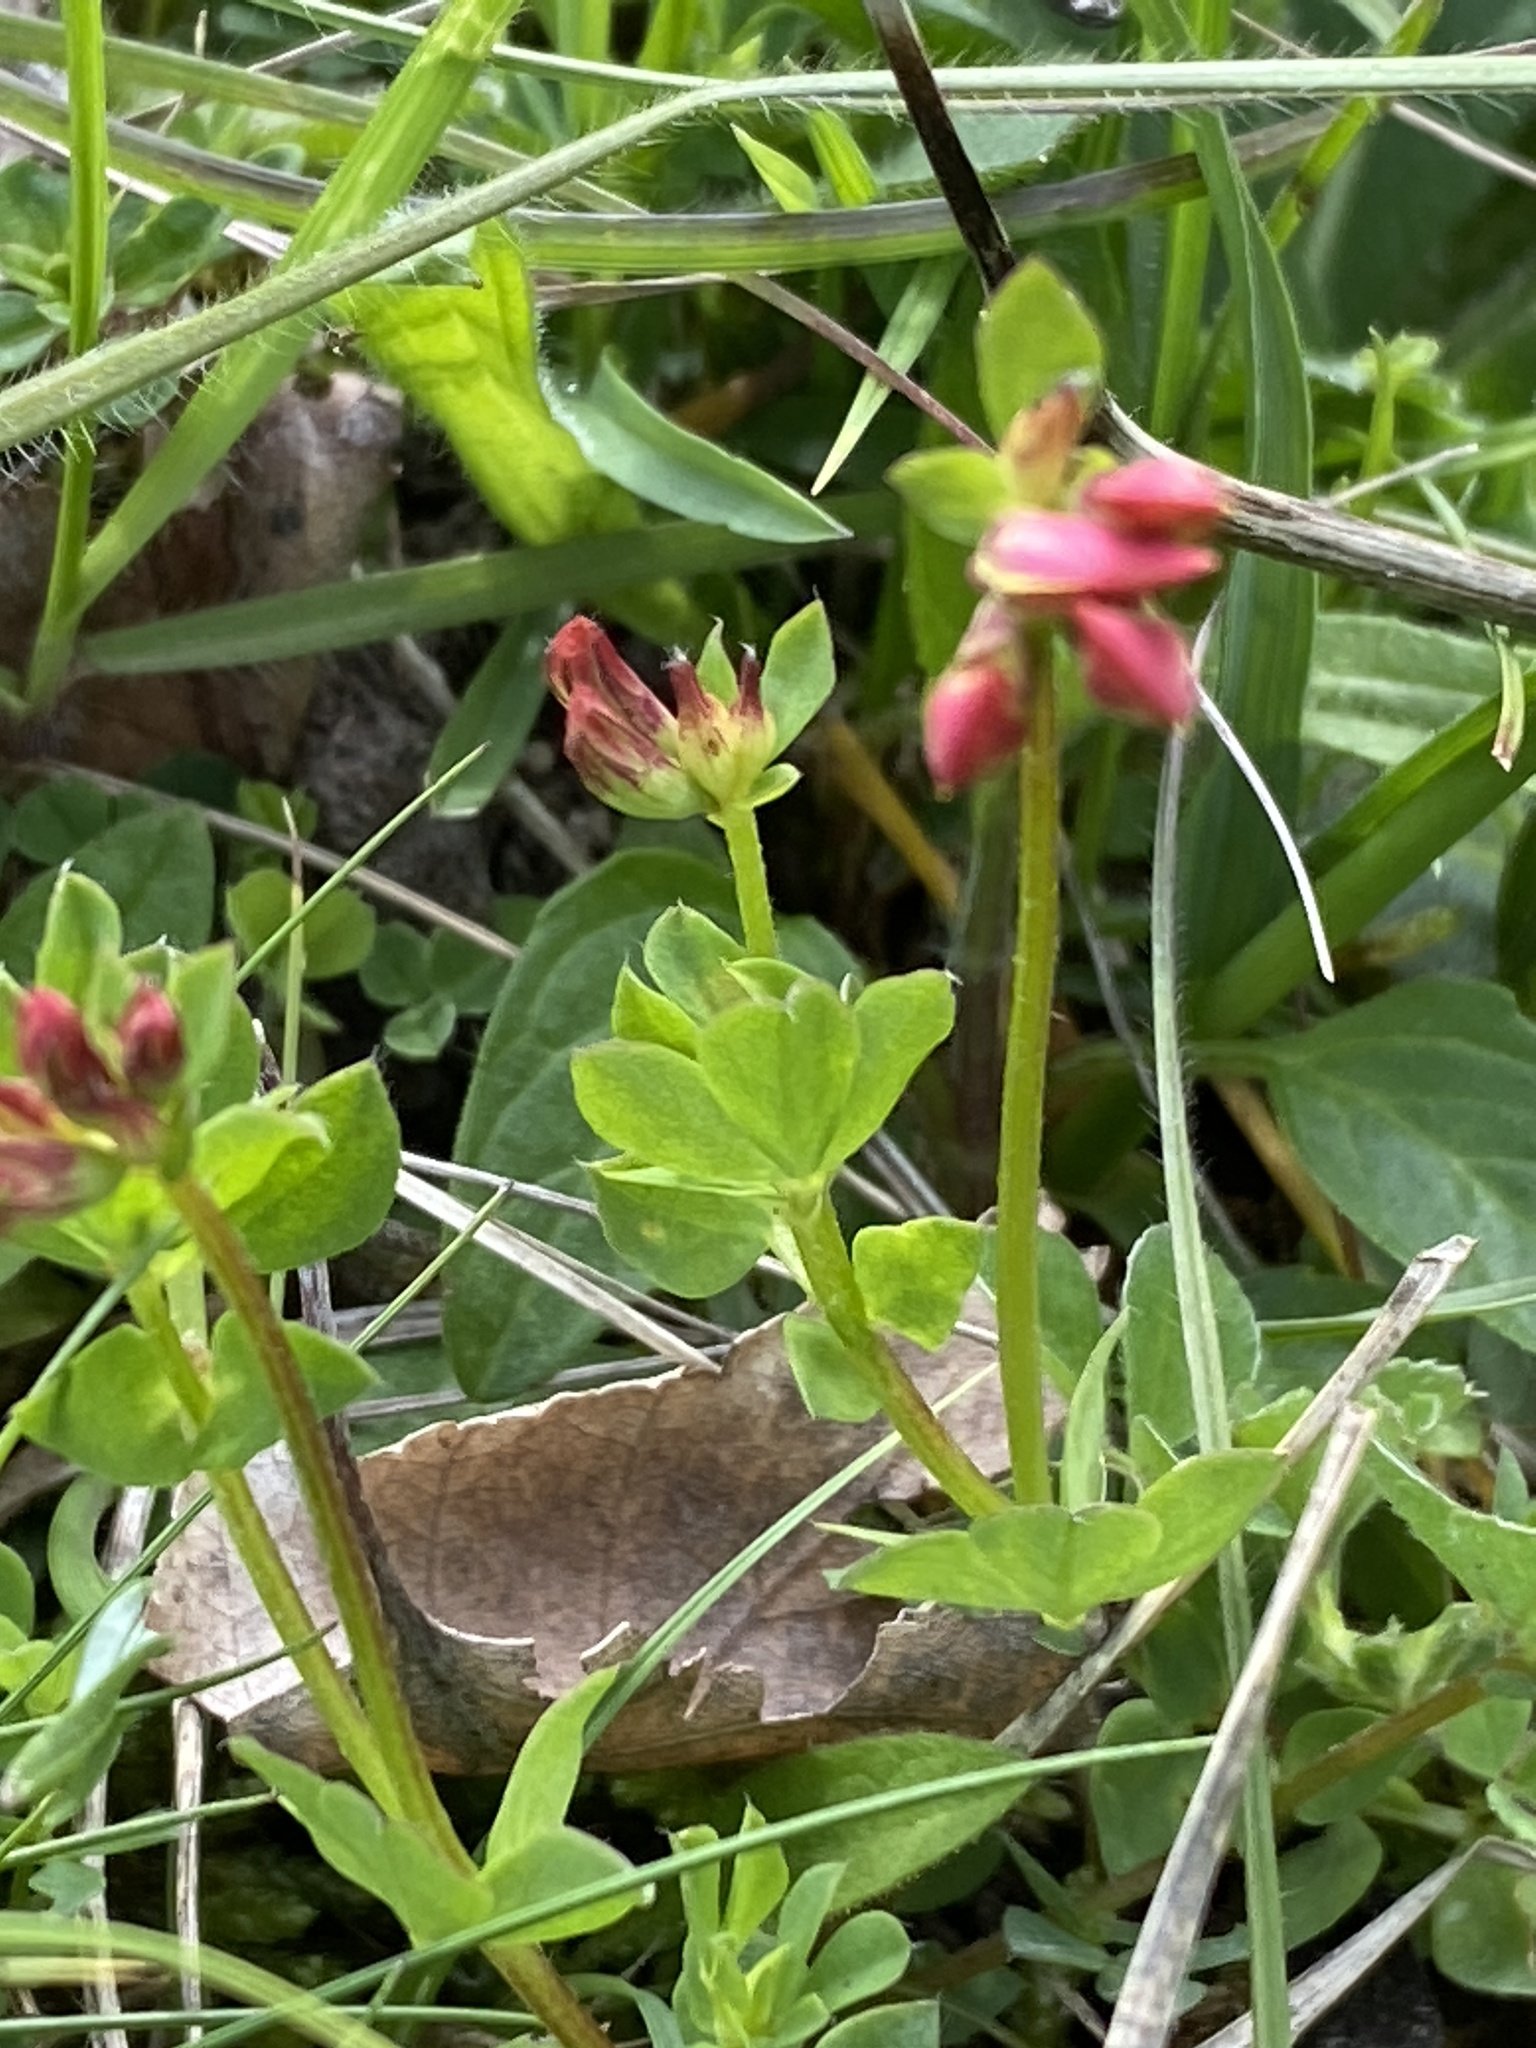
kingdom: Plantae
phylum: Tracheophyta
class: Magnoliopsida
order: Fabales
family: Fabaceae
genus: Lotus
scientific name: Lotus corniculatus
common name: Common bird's-foot-trefoil
